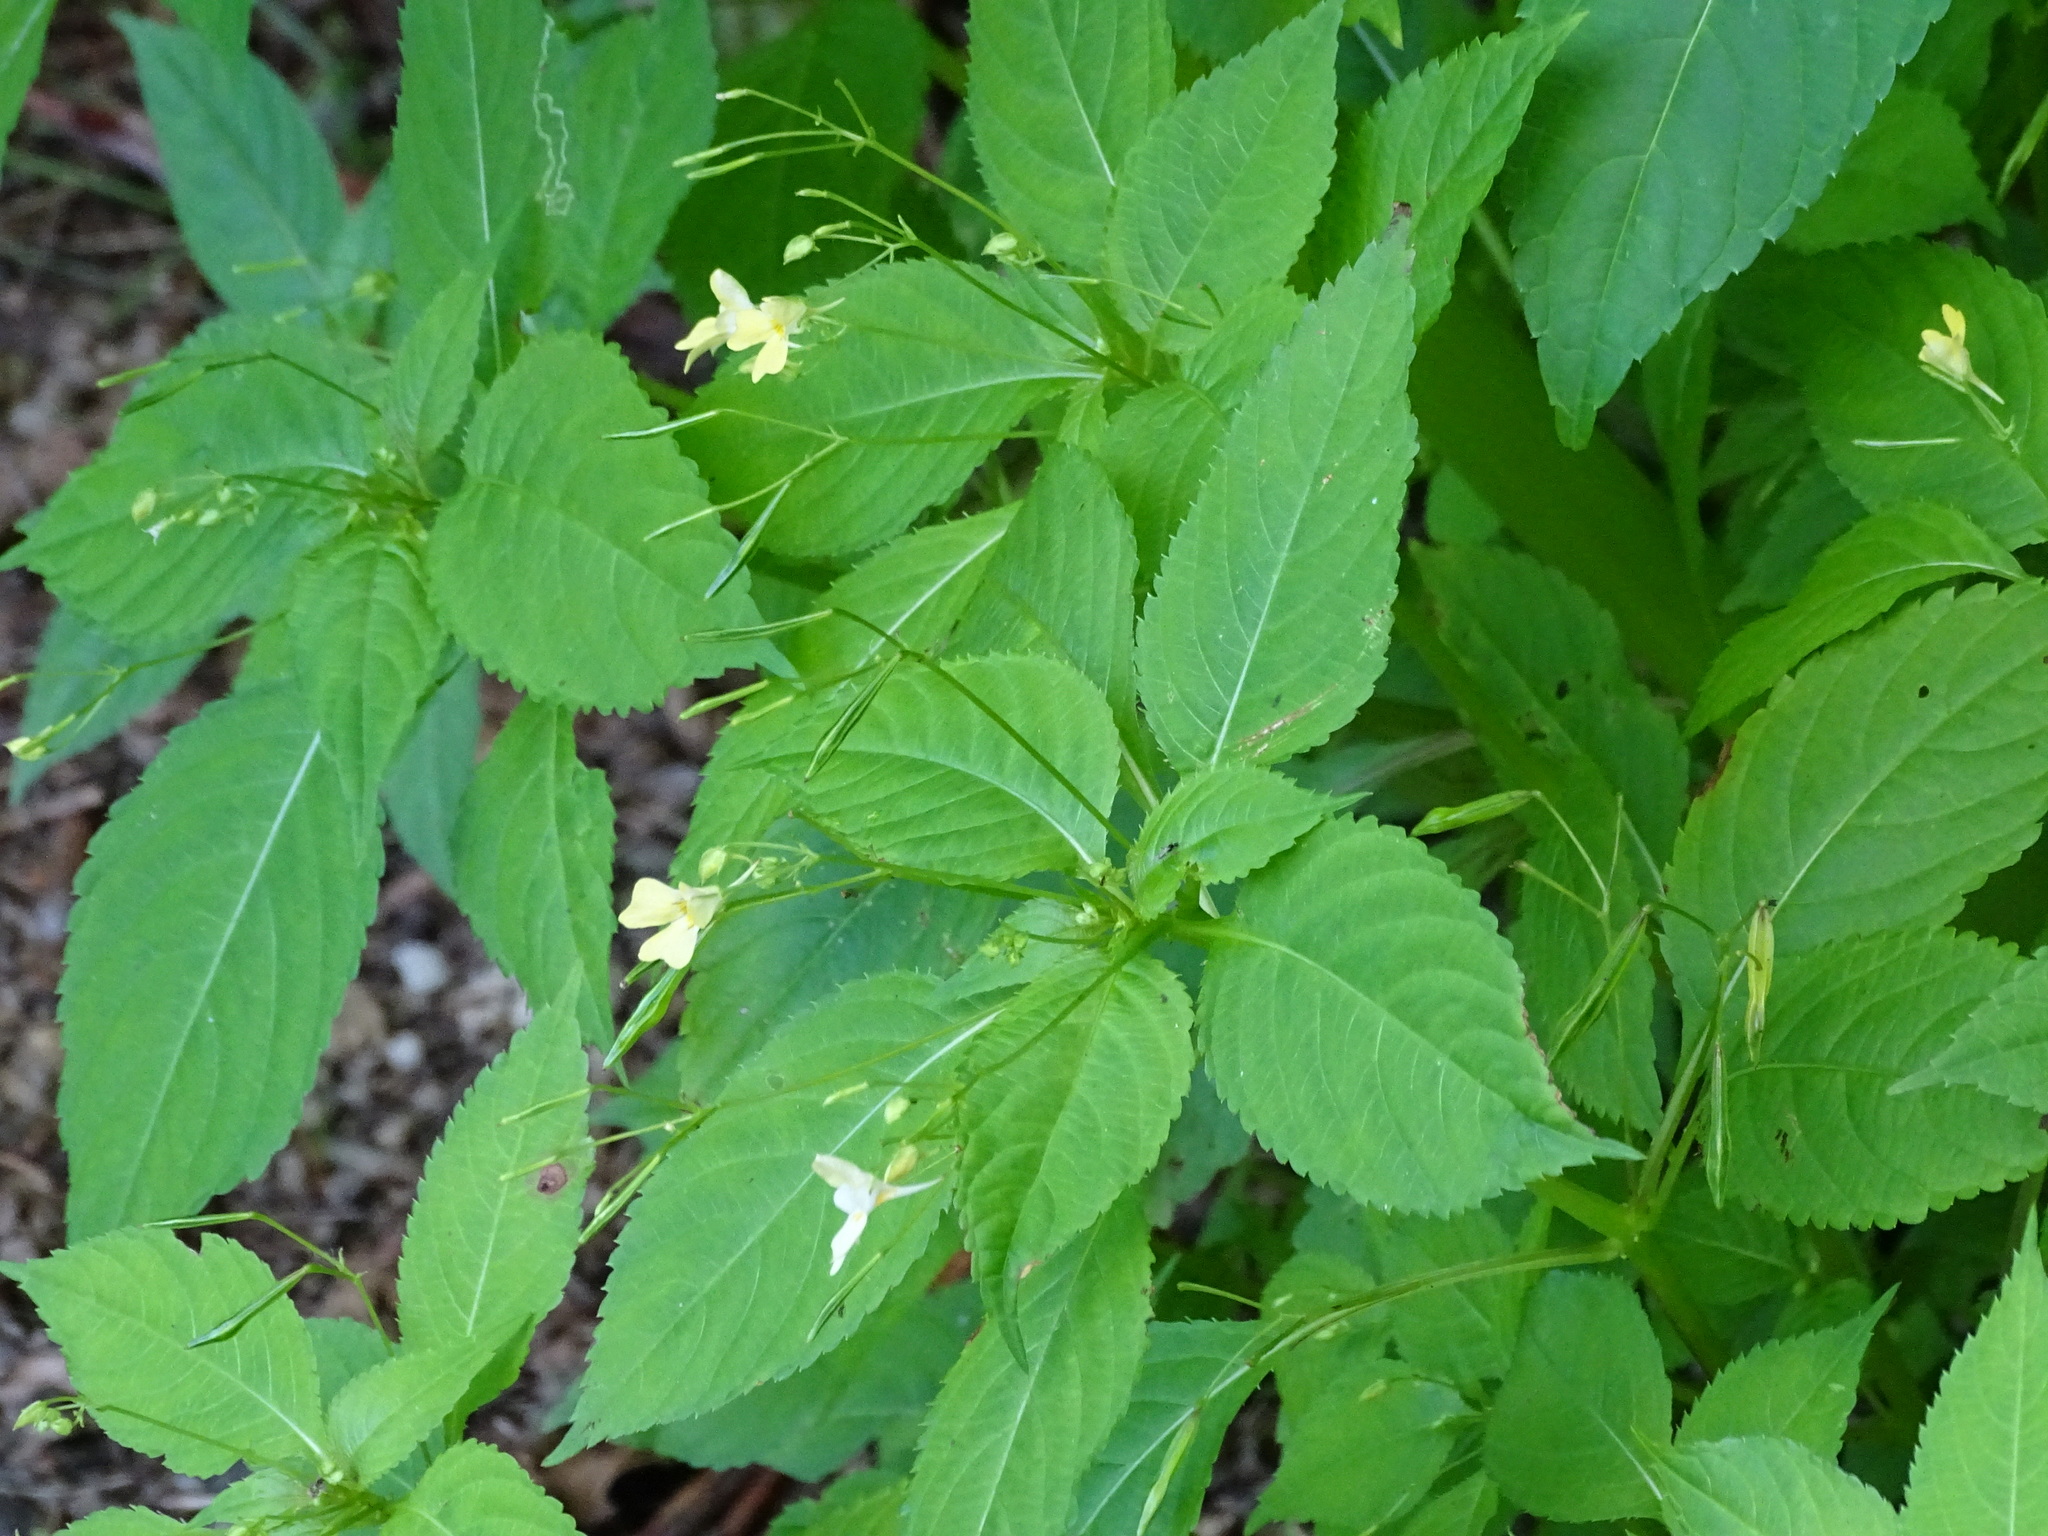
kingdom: Plantae
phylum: Tracheophyta
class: Magnoliopsida
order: Ericales
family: Balsaminaceae
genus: Impatiens
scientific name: Impatiens parviflora
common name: Small balsam
